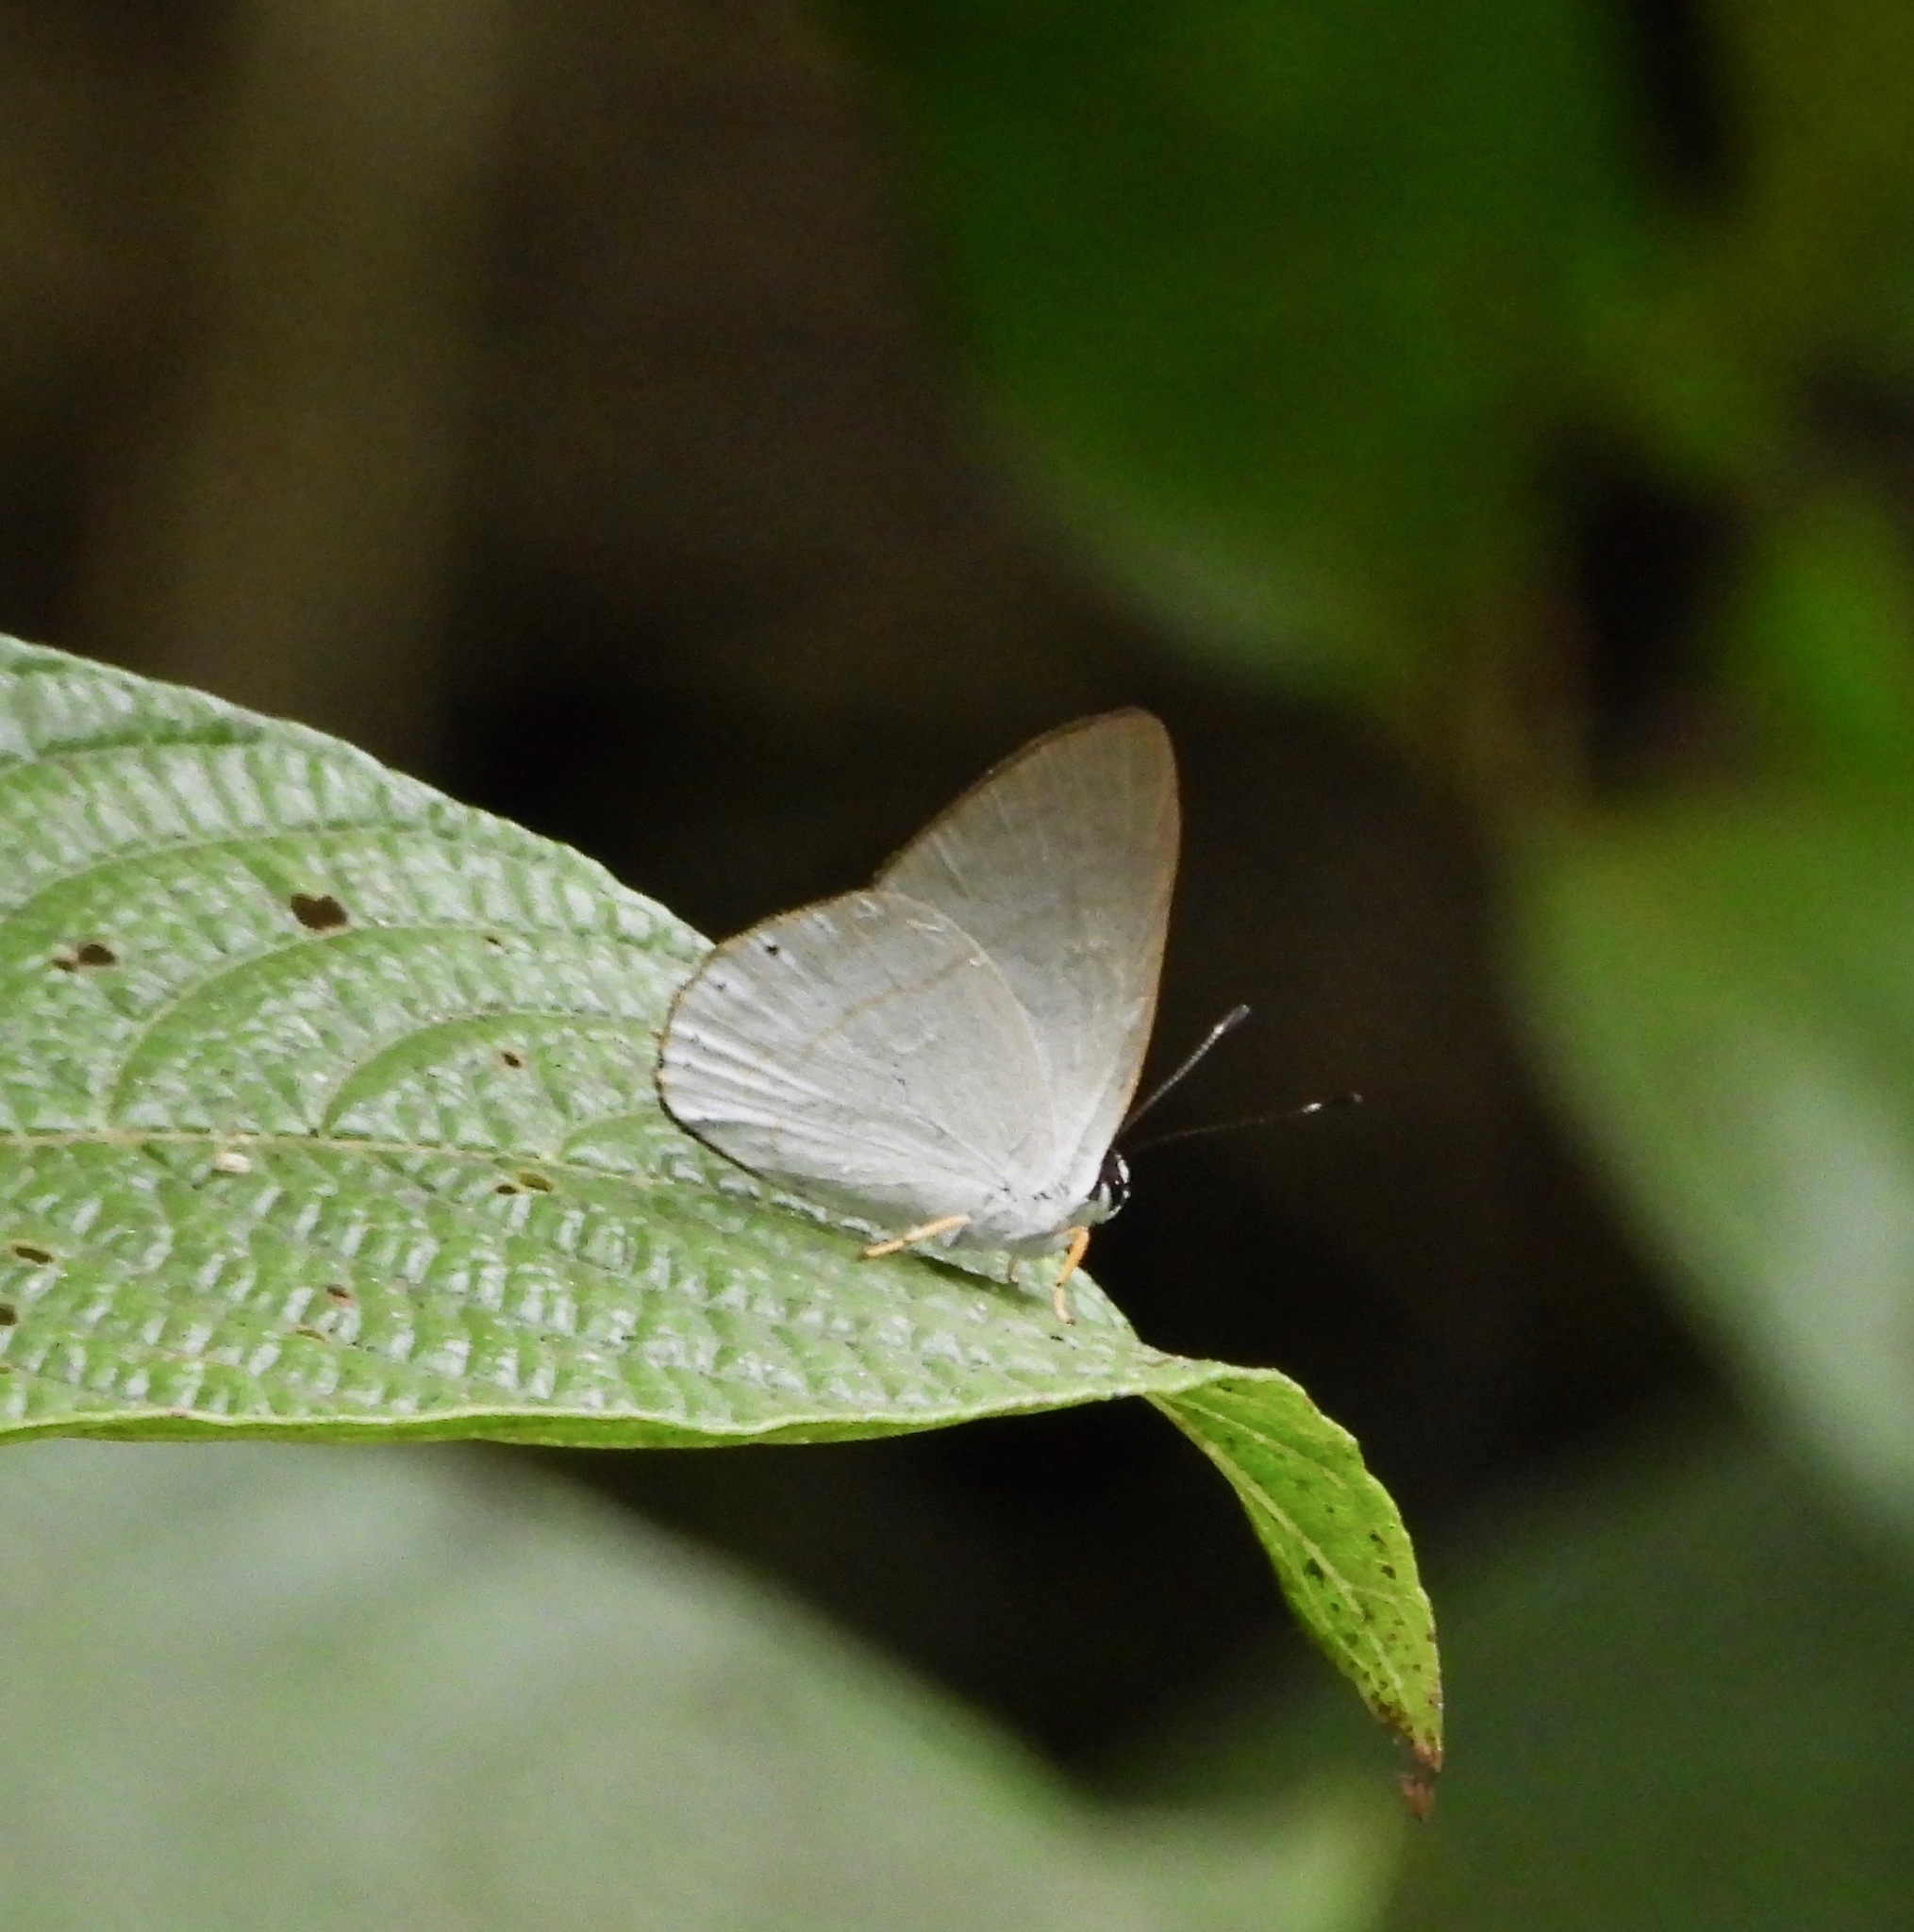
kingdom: Animalia
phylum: Arthropoda
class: Insecta
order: Lepidoptera
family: Riodinidae
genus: Pelolasia
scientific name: Pelolasia
